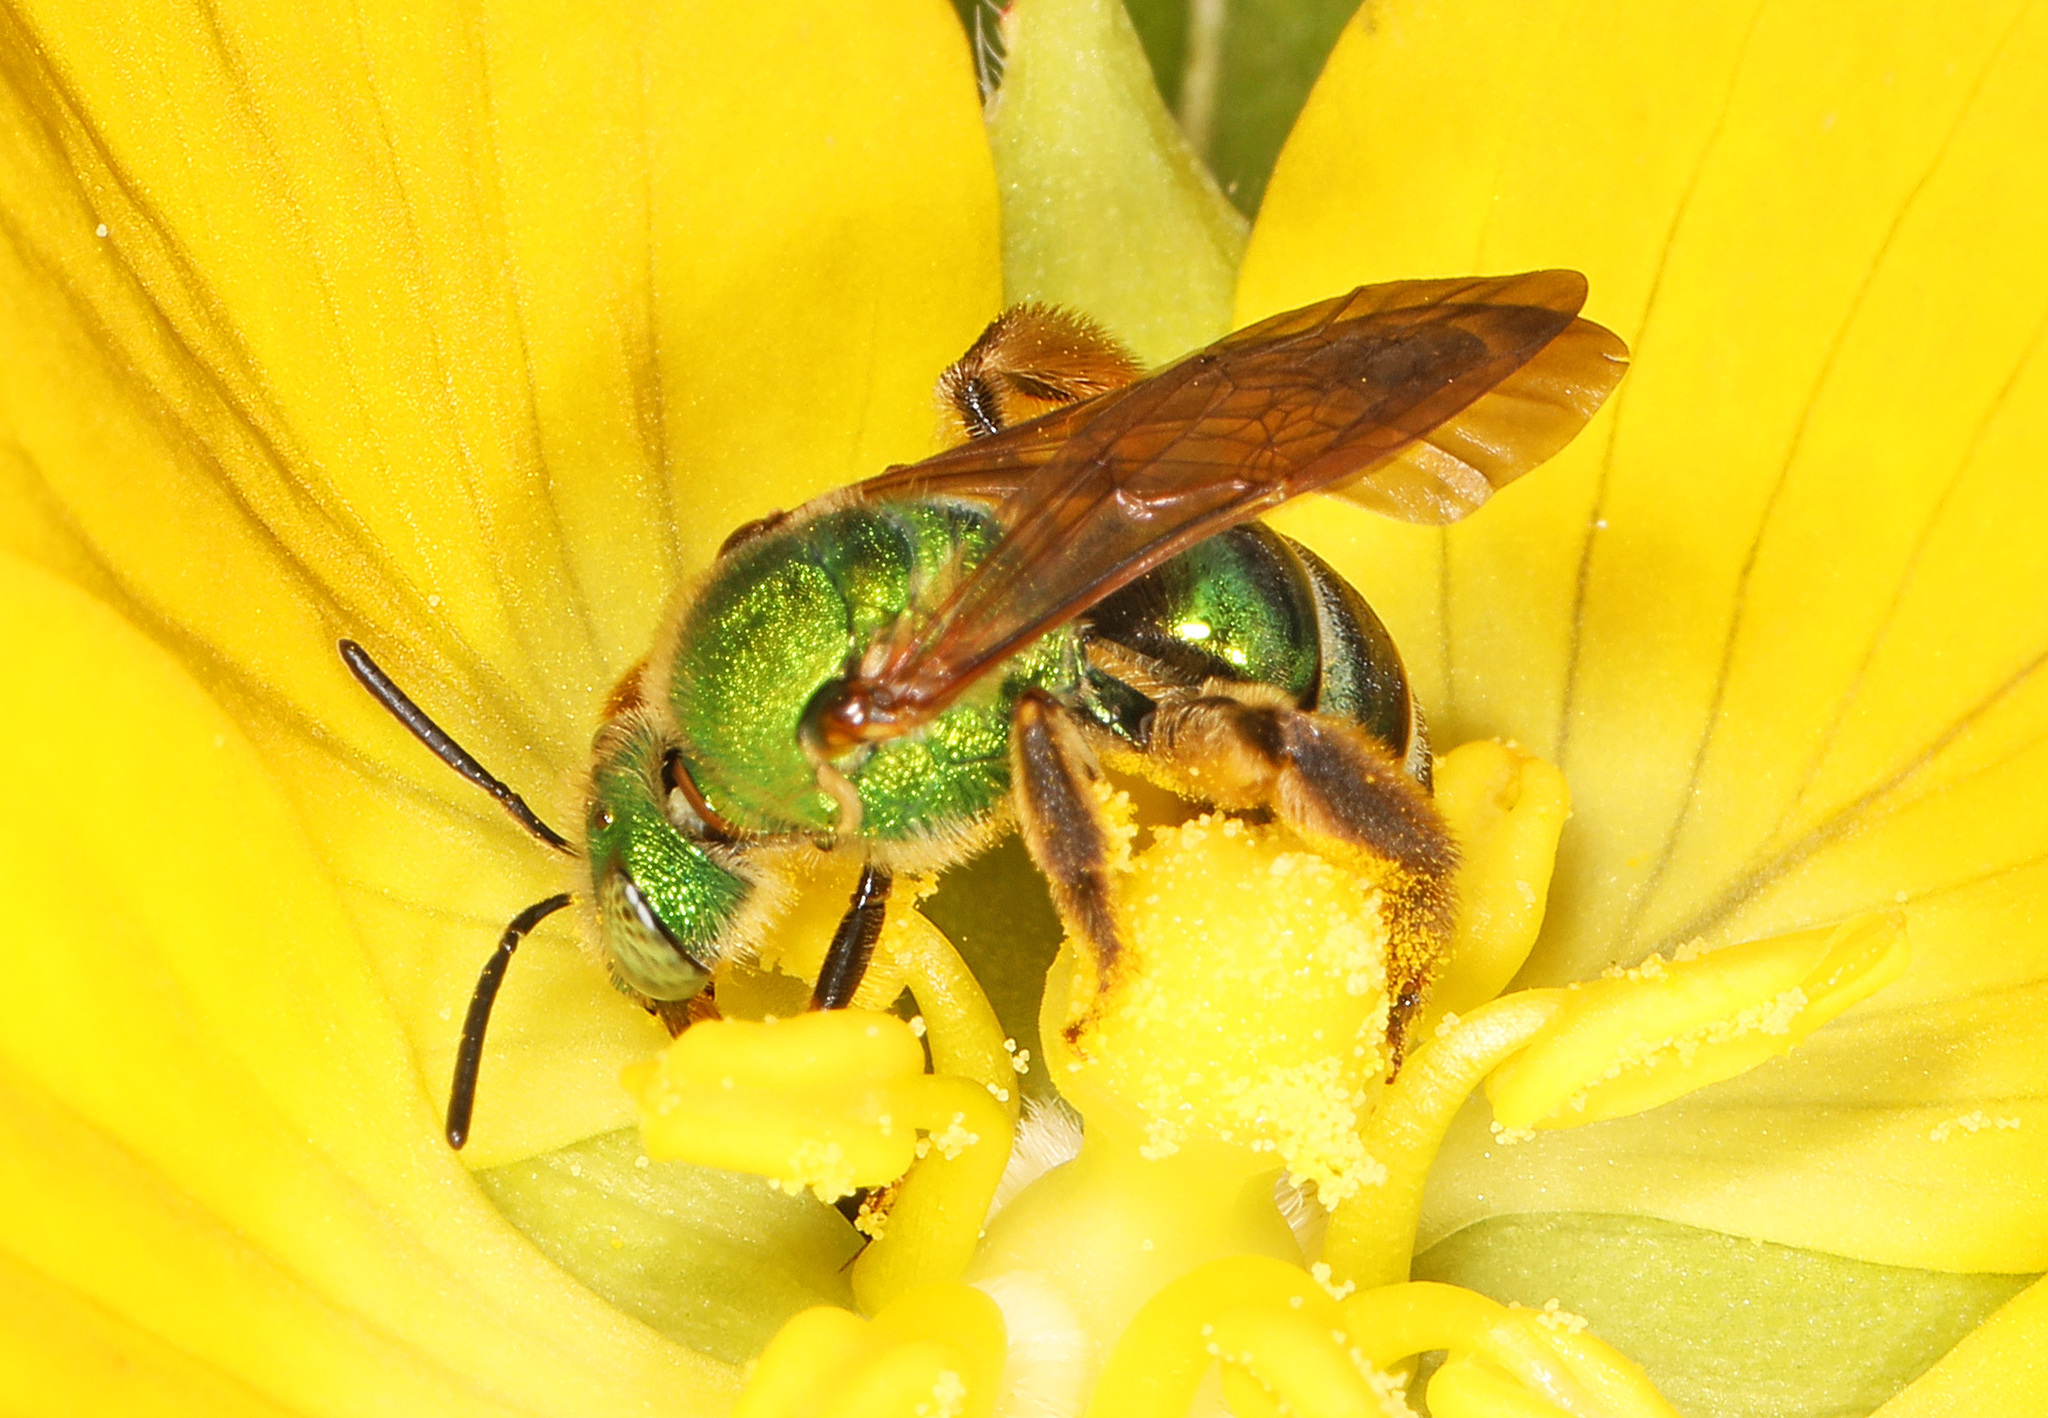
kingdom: Animalia
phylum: Arthropoda
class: Insecta
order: Hymenoptera
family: Halictidae
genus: Agapostemon
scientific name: Agapostemon splendens
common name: Brown-winged striped sweat bee
